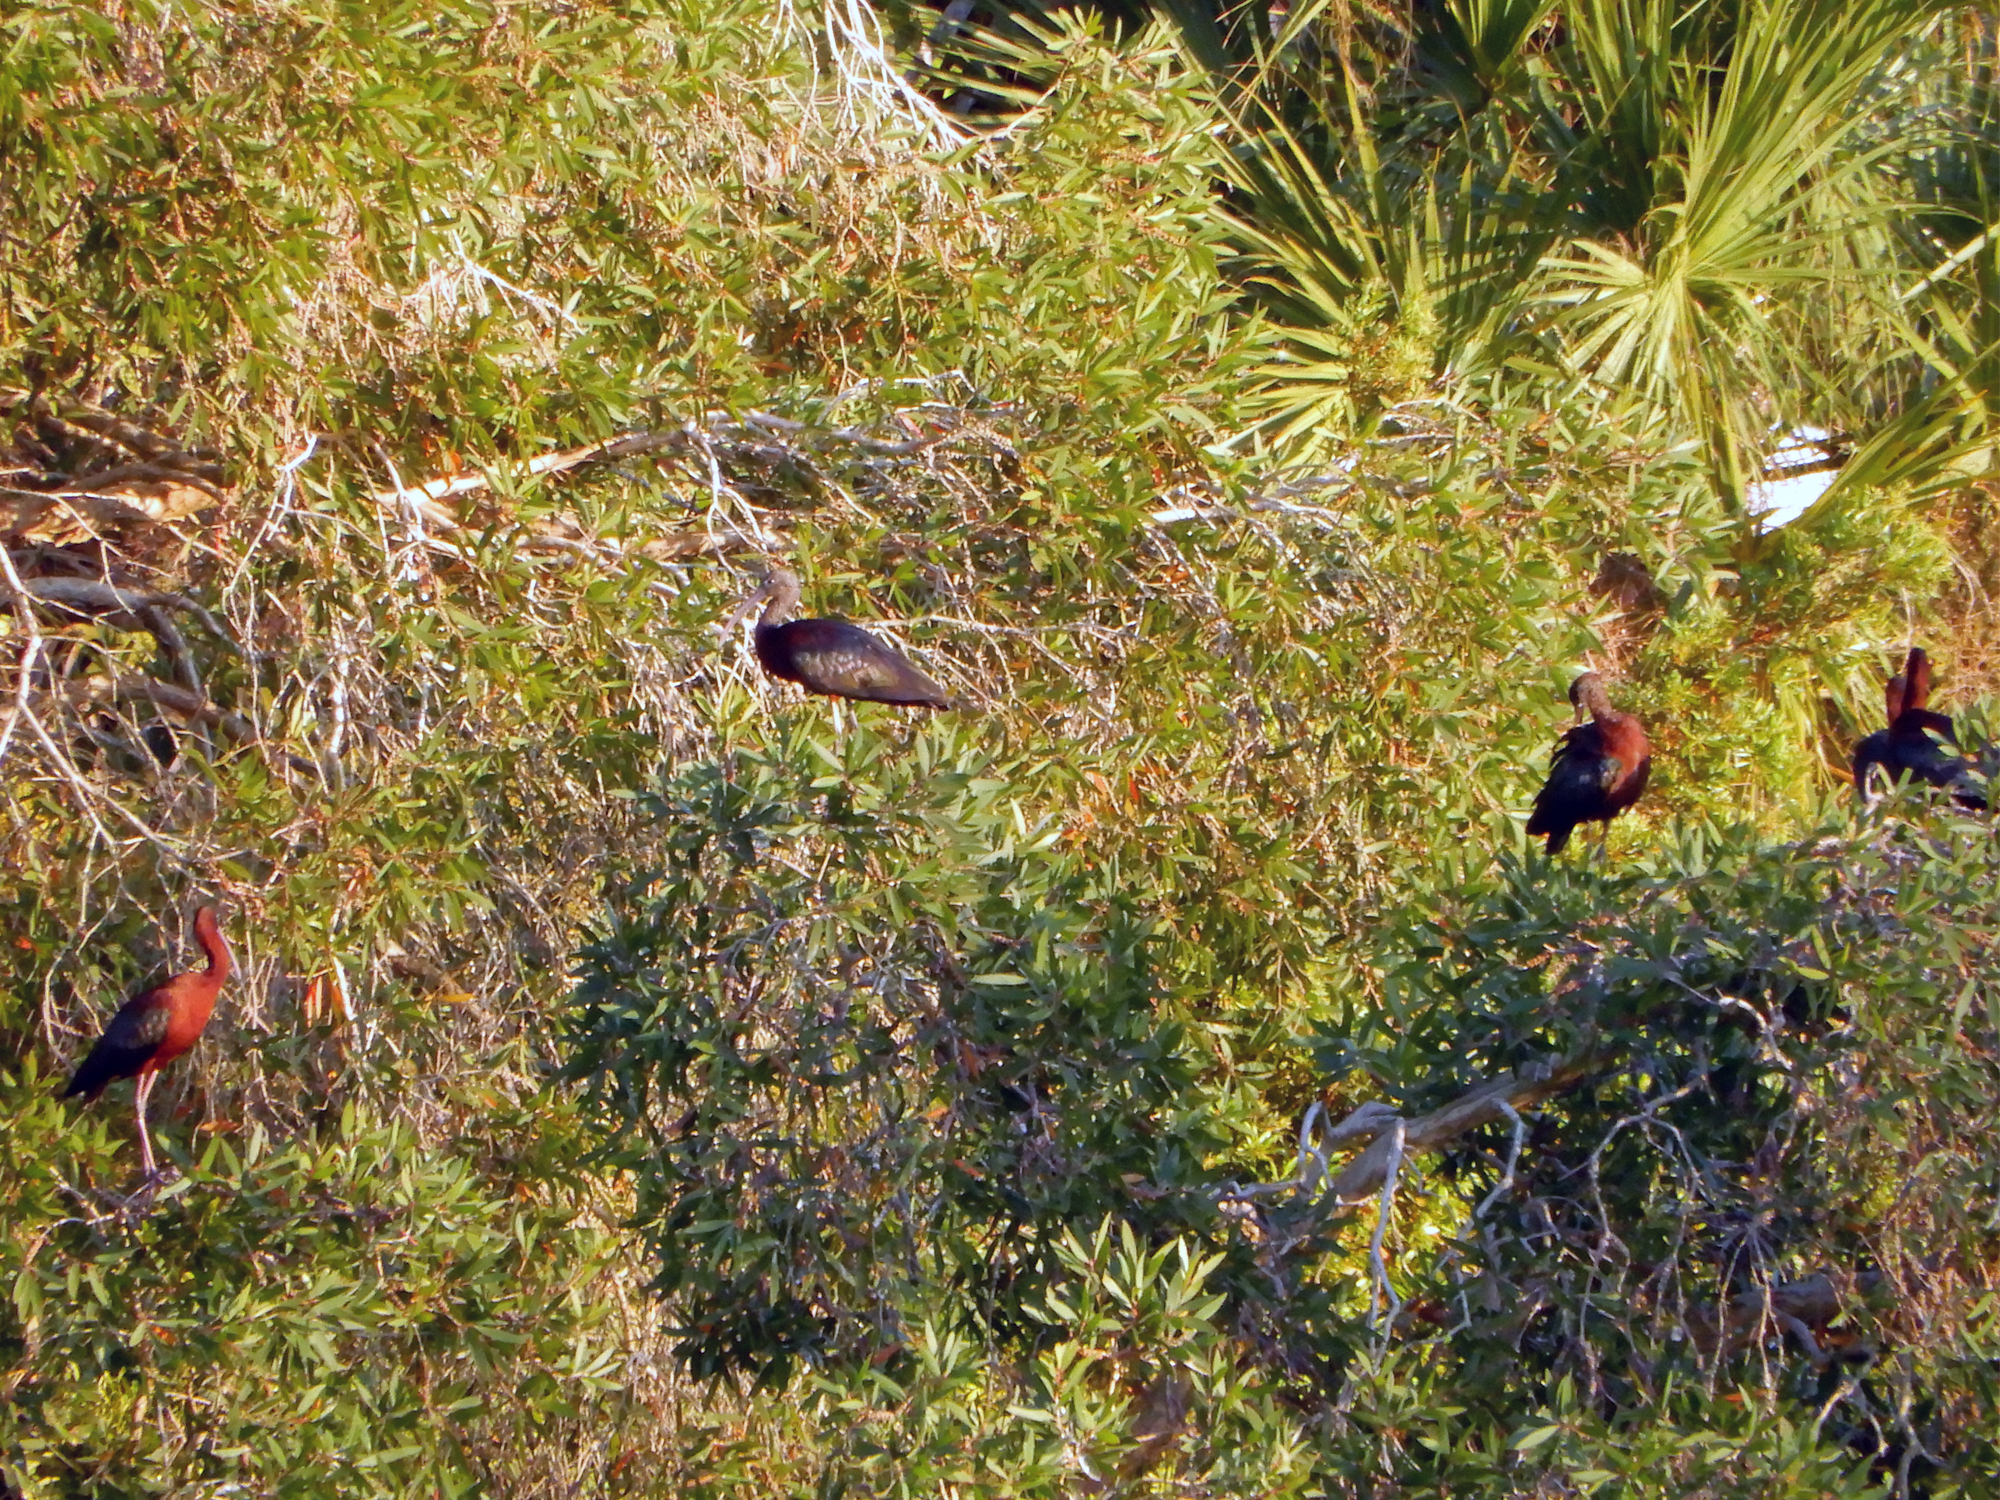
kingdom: Animalia
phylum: Chordata
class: Aves
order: Pelecaniformes
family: Threskiornithidae
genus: Plegadis
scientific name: Plegadis falcinellus
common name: Glossy ibis
